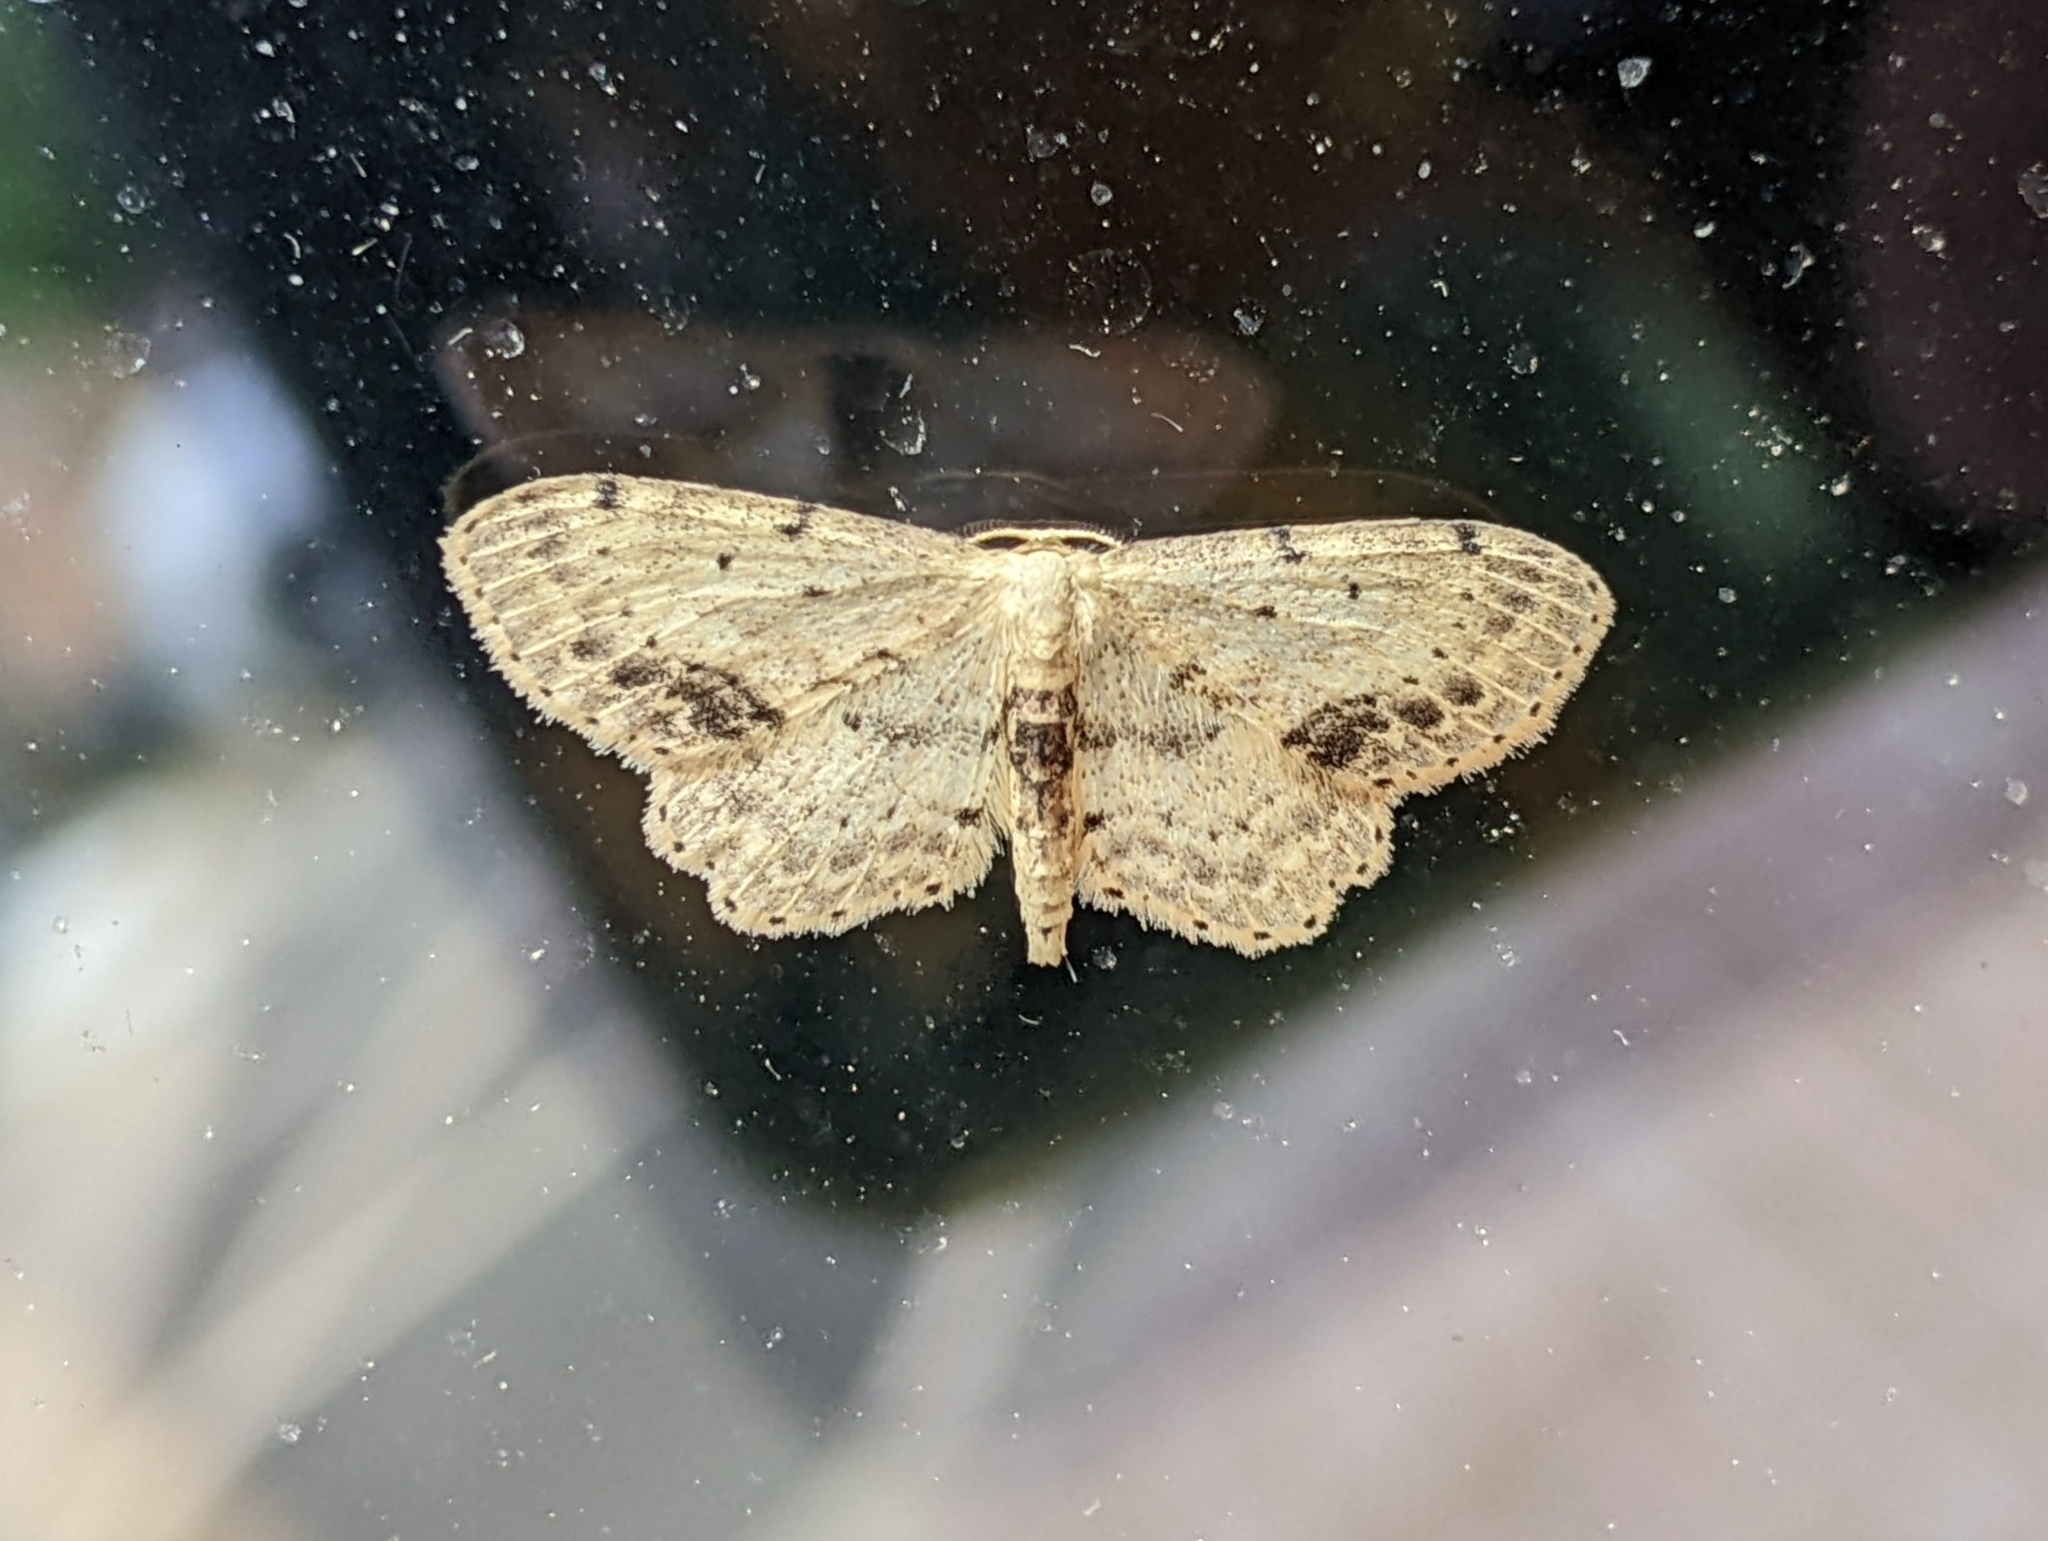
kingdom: Animalia
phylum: Arthropoda
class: Insecta
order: Lepidoptera
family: Geometridae
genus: Idaea
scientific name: Idaea dimidiata
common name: Single-dotted wave
